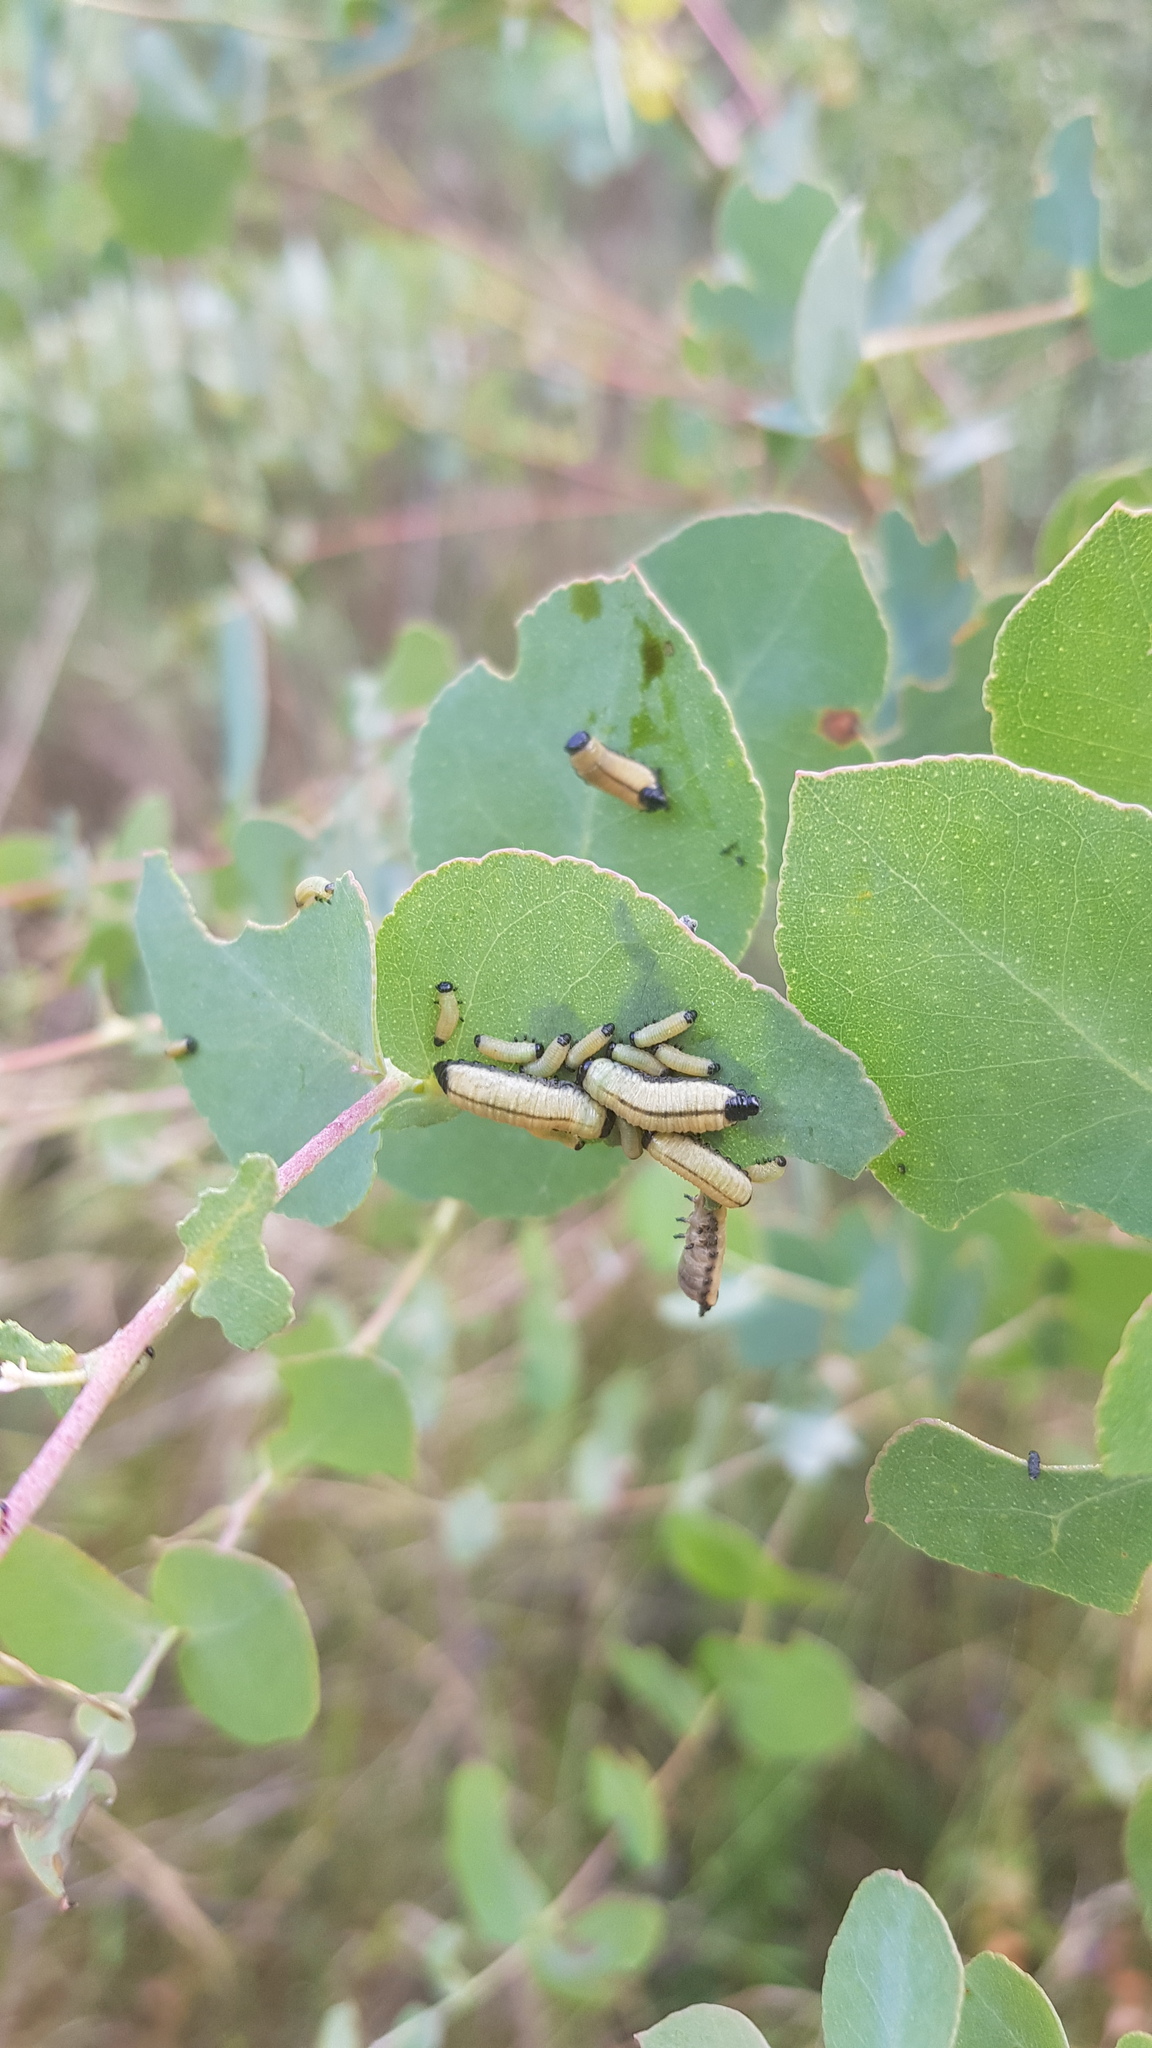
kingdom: Animalia
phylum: Arthropoda
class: Insecta
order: Coleoptera
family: Chrysomelidae
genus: Paropsisterna
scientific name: Paropsisterna cloelia
